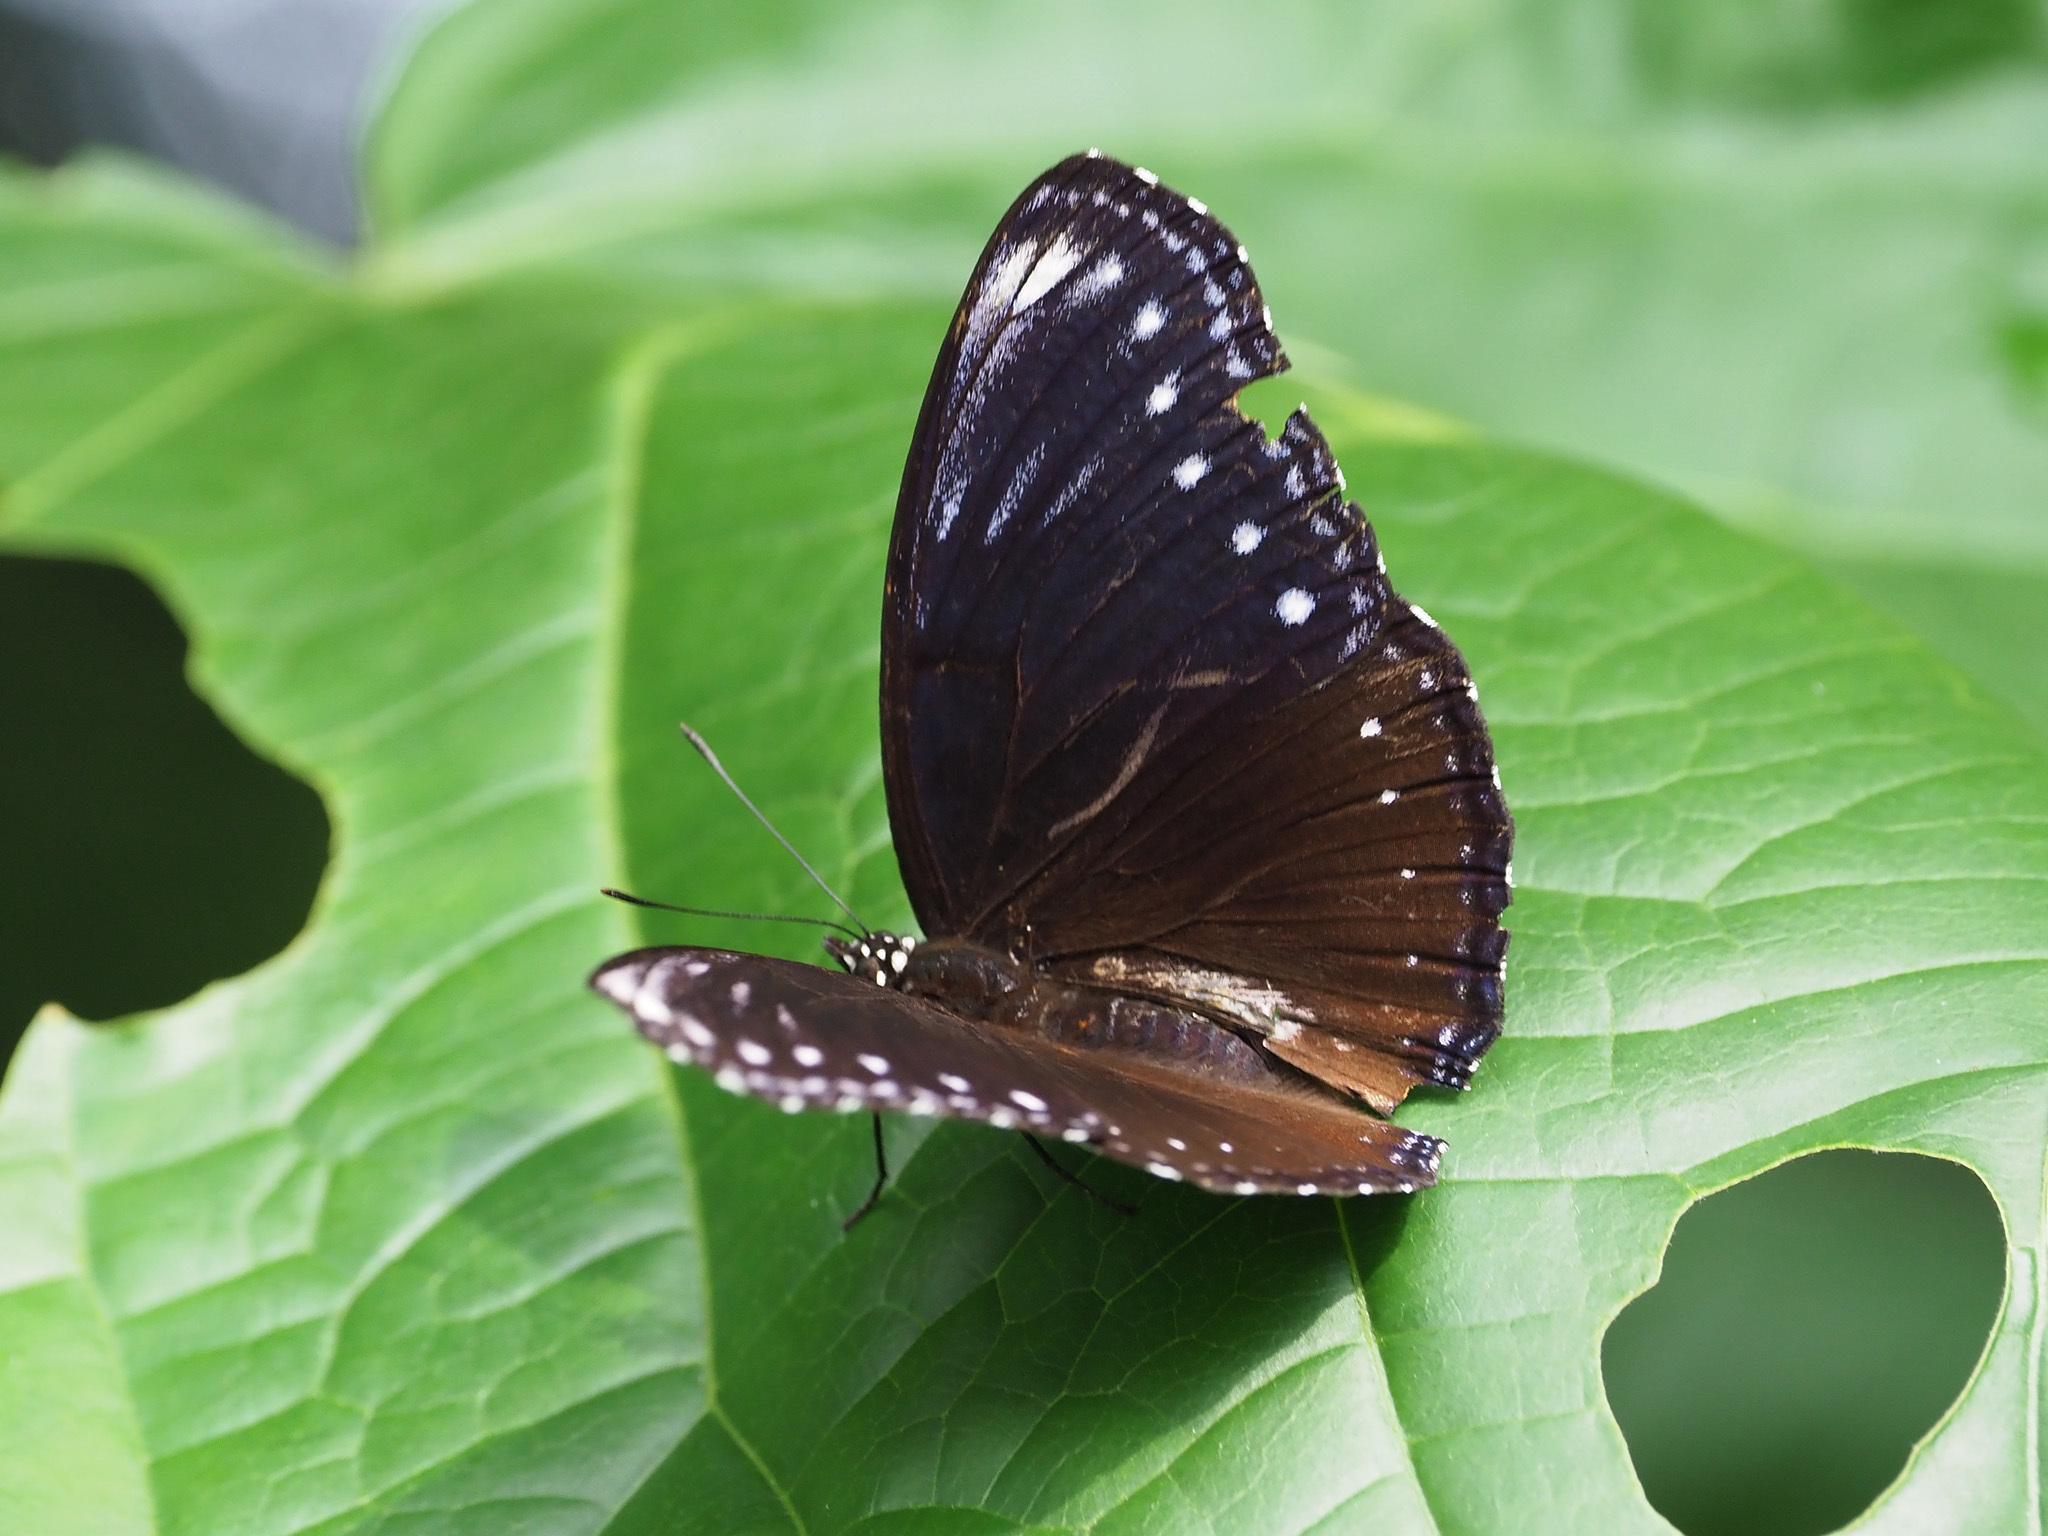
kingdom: Animalia
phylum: Arthropoda
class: Insecta
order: Lepidoptera
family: Nymphalidae
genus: Hypolimnas
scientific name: Hypolimnas anomala
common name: Malayan eggfly
